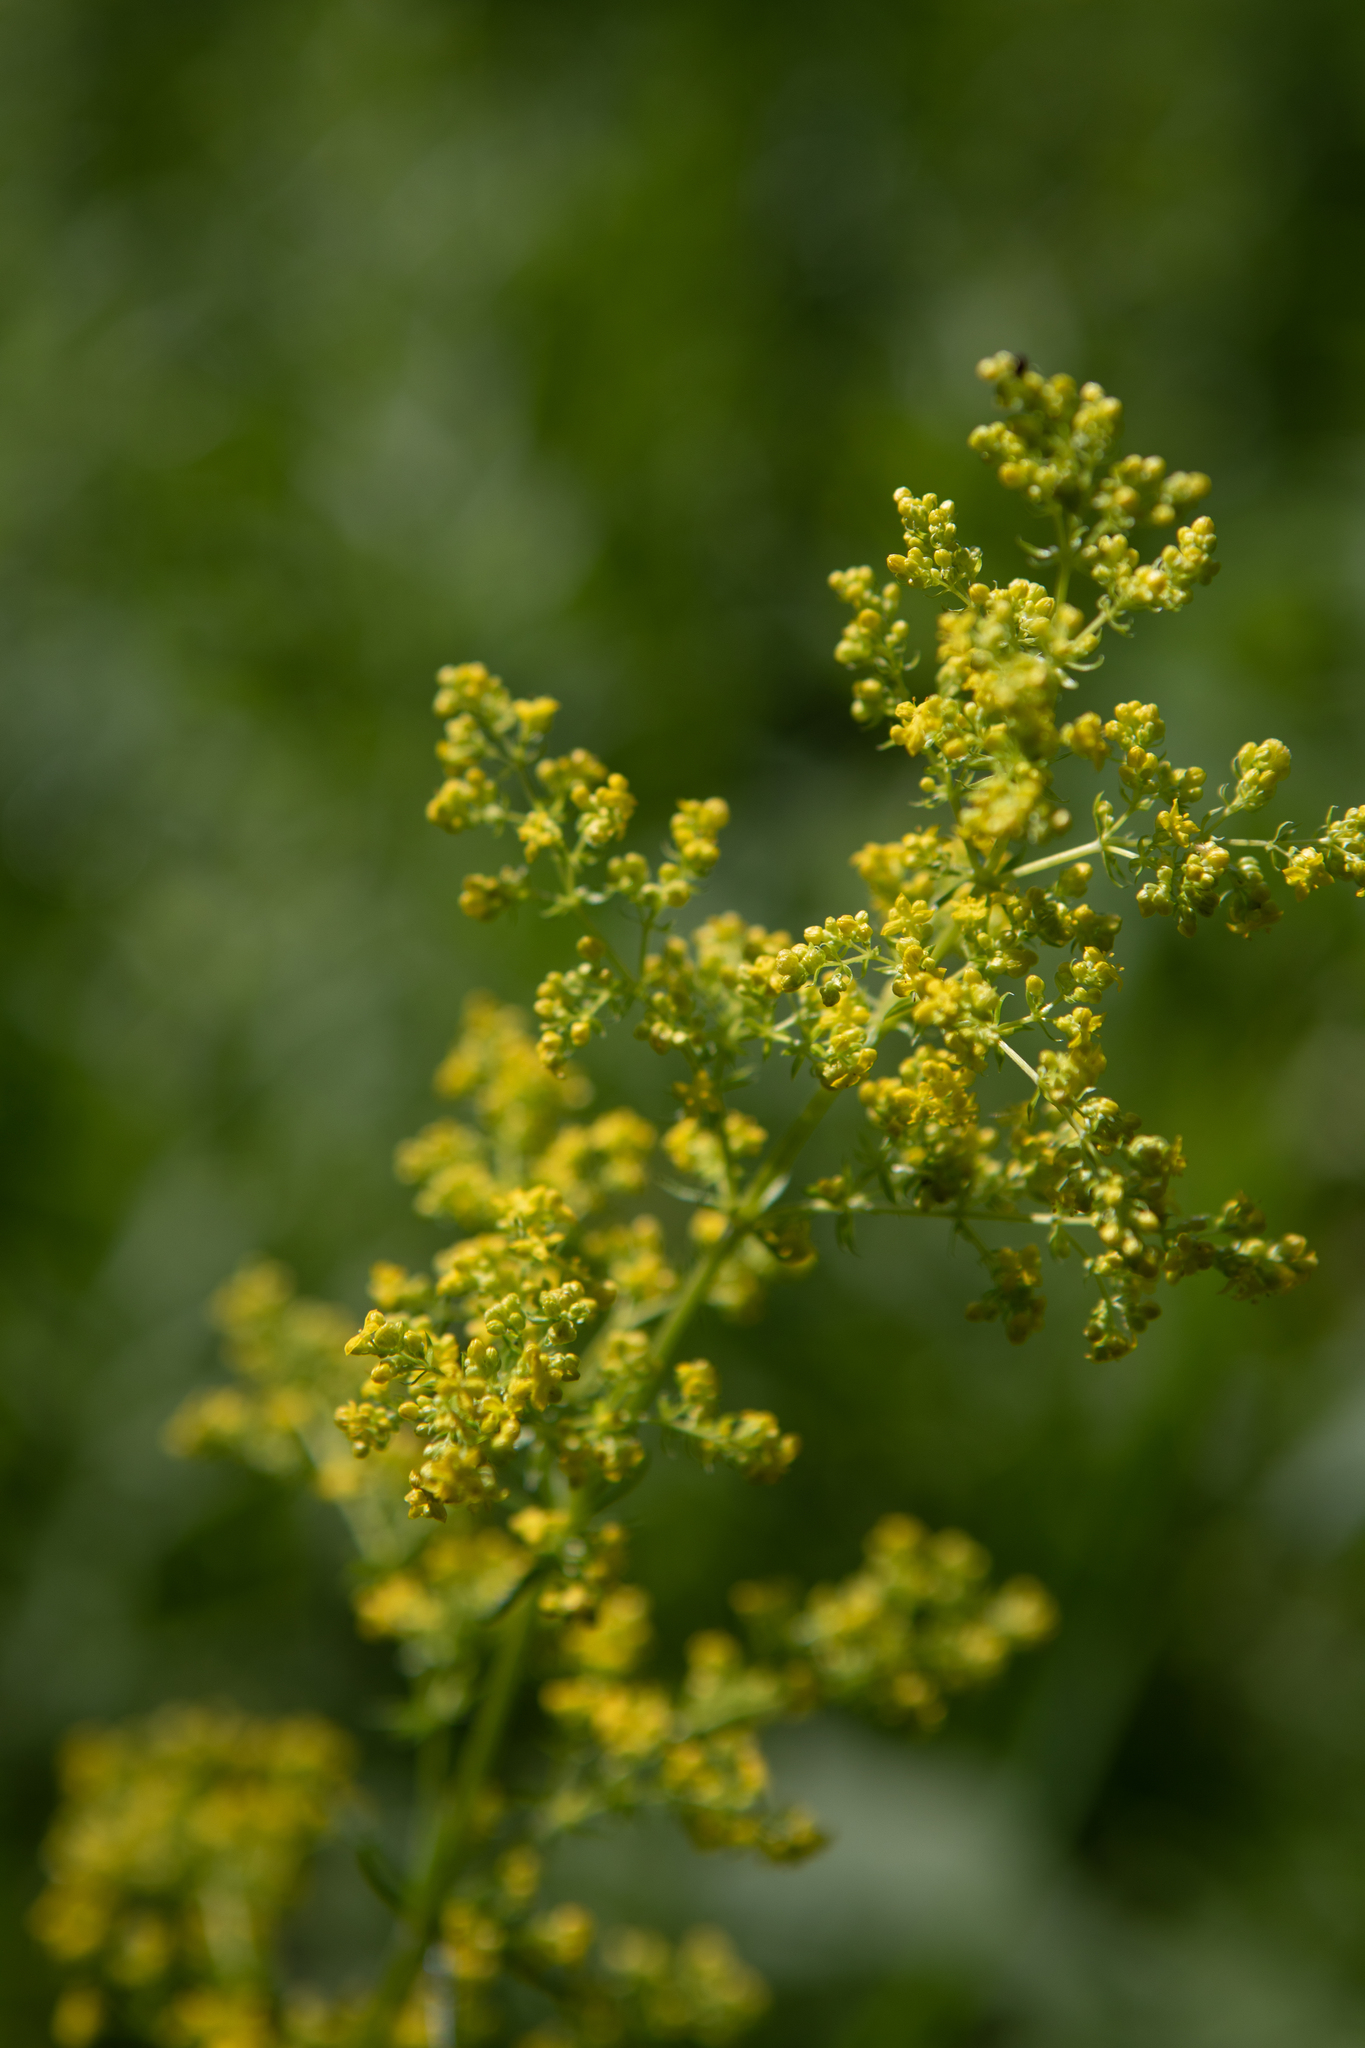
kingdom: Plantae
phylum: Tracheophyta
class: Magnoliopsida
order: Gentianales
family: Rubiaceae
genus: Galium
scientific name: Galium verum
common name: Lady's bedstraw
